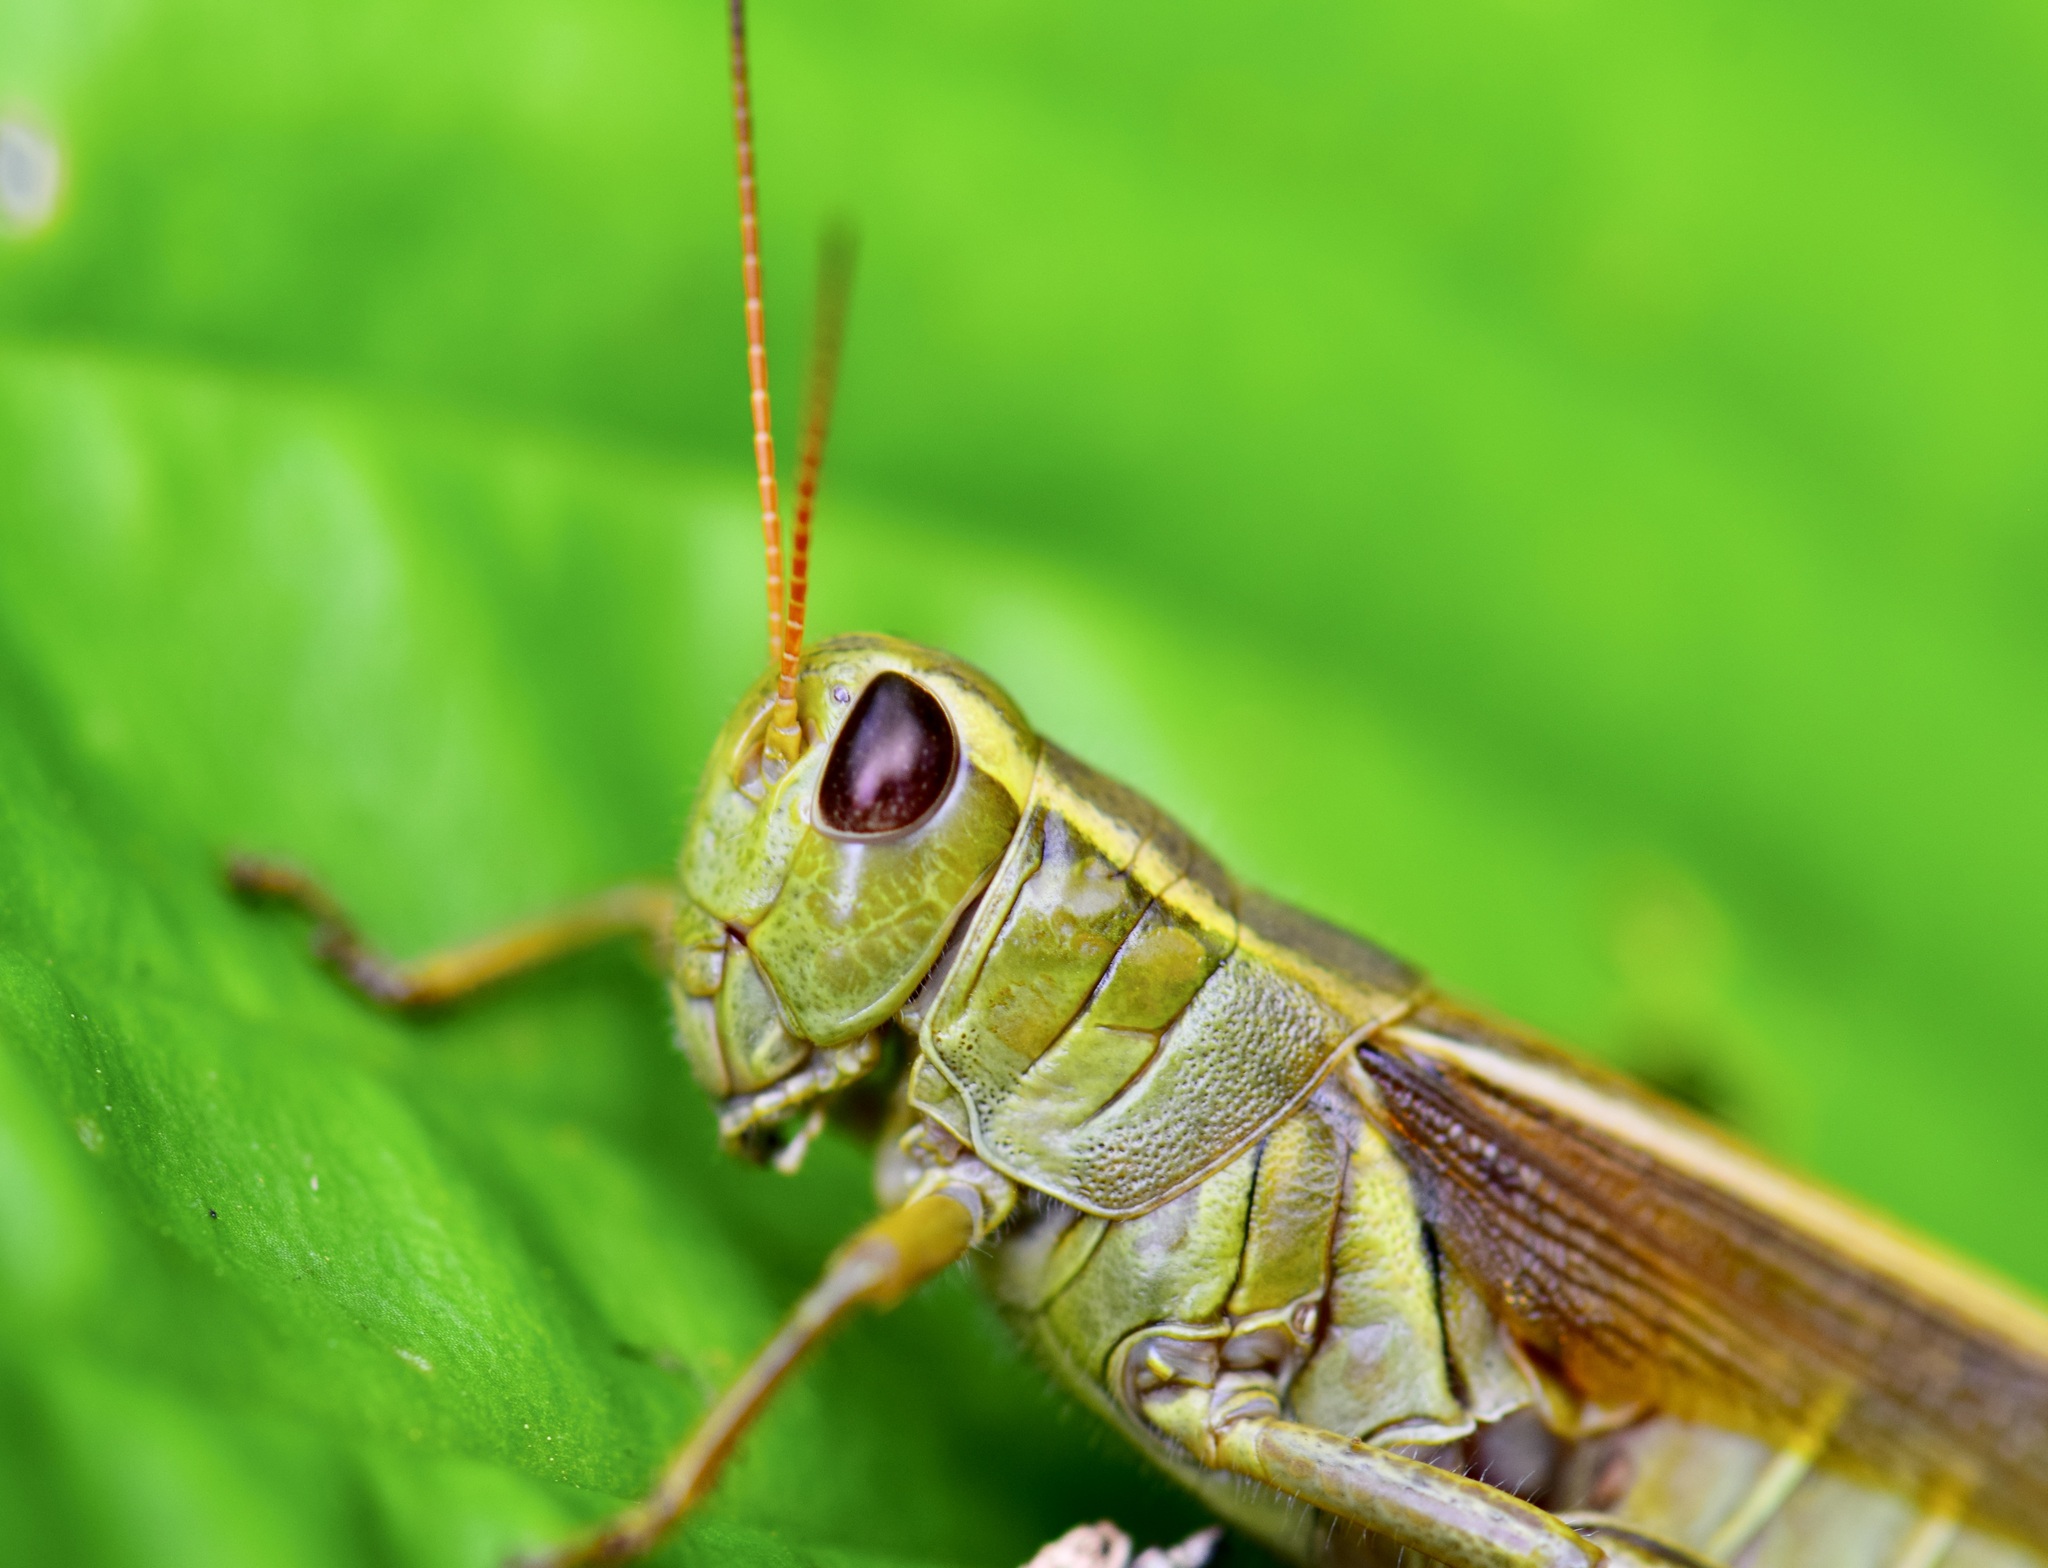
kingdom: Animalia
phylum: Arthropoda
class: Insecta
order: Orthoptera
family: Acrididae
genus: Melanoplus
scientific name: Melanoplus bivittatus
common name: Two-striped grasshopper
